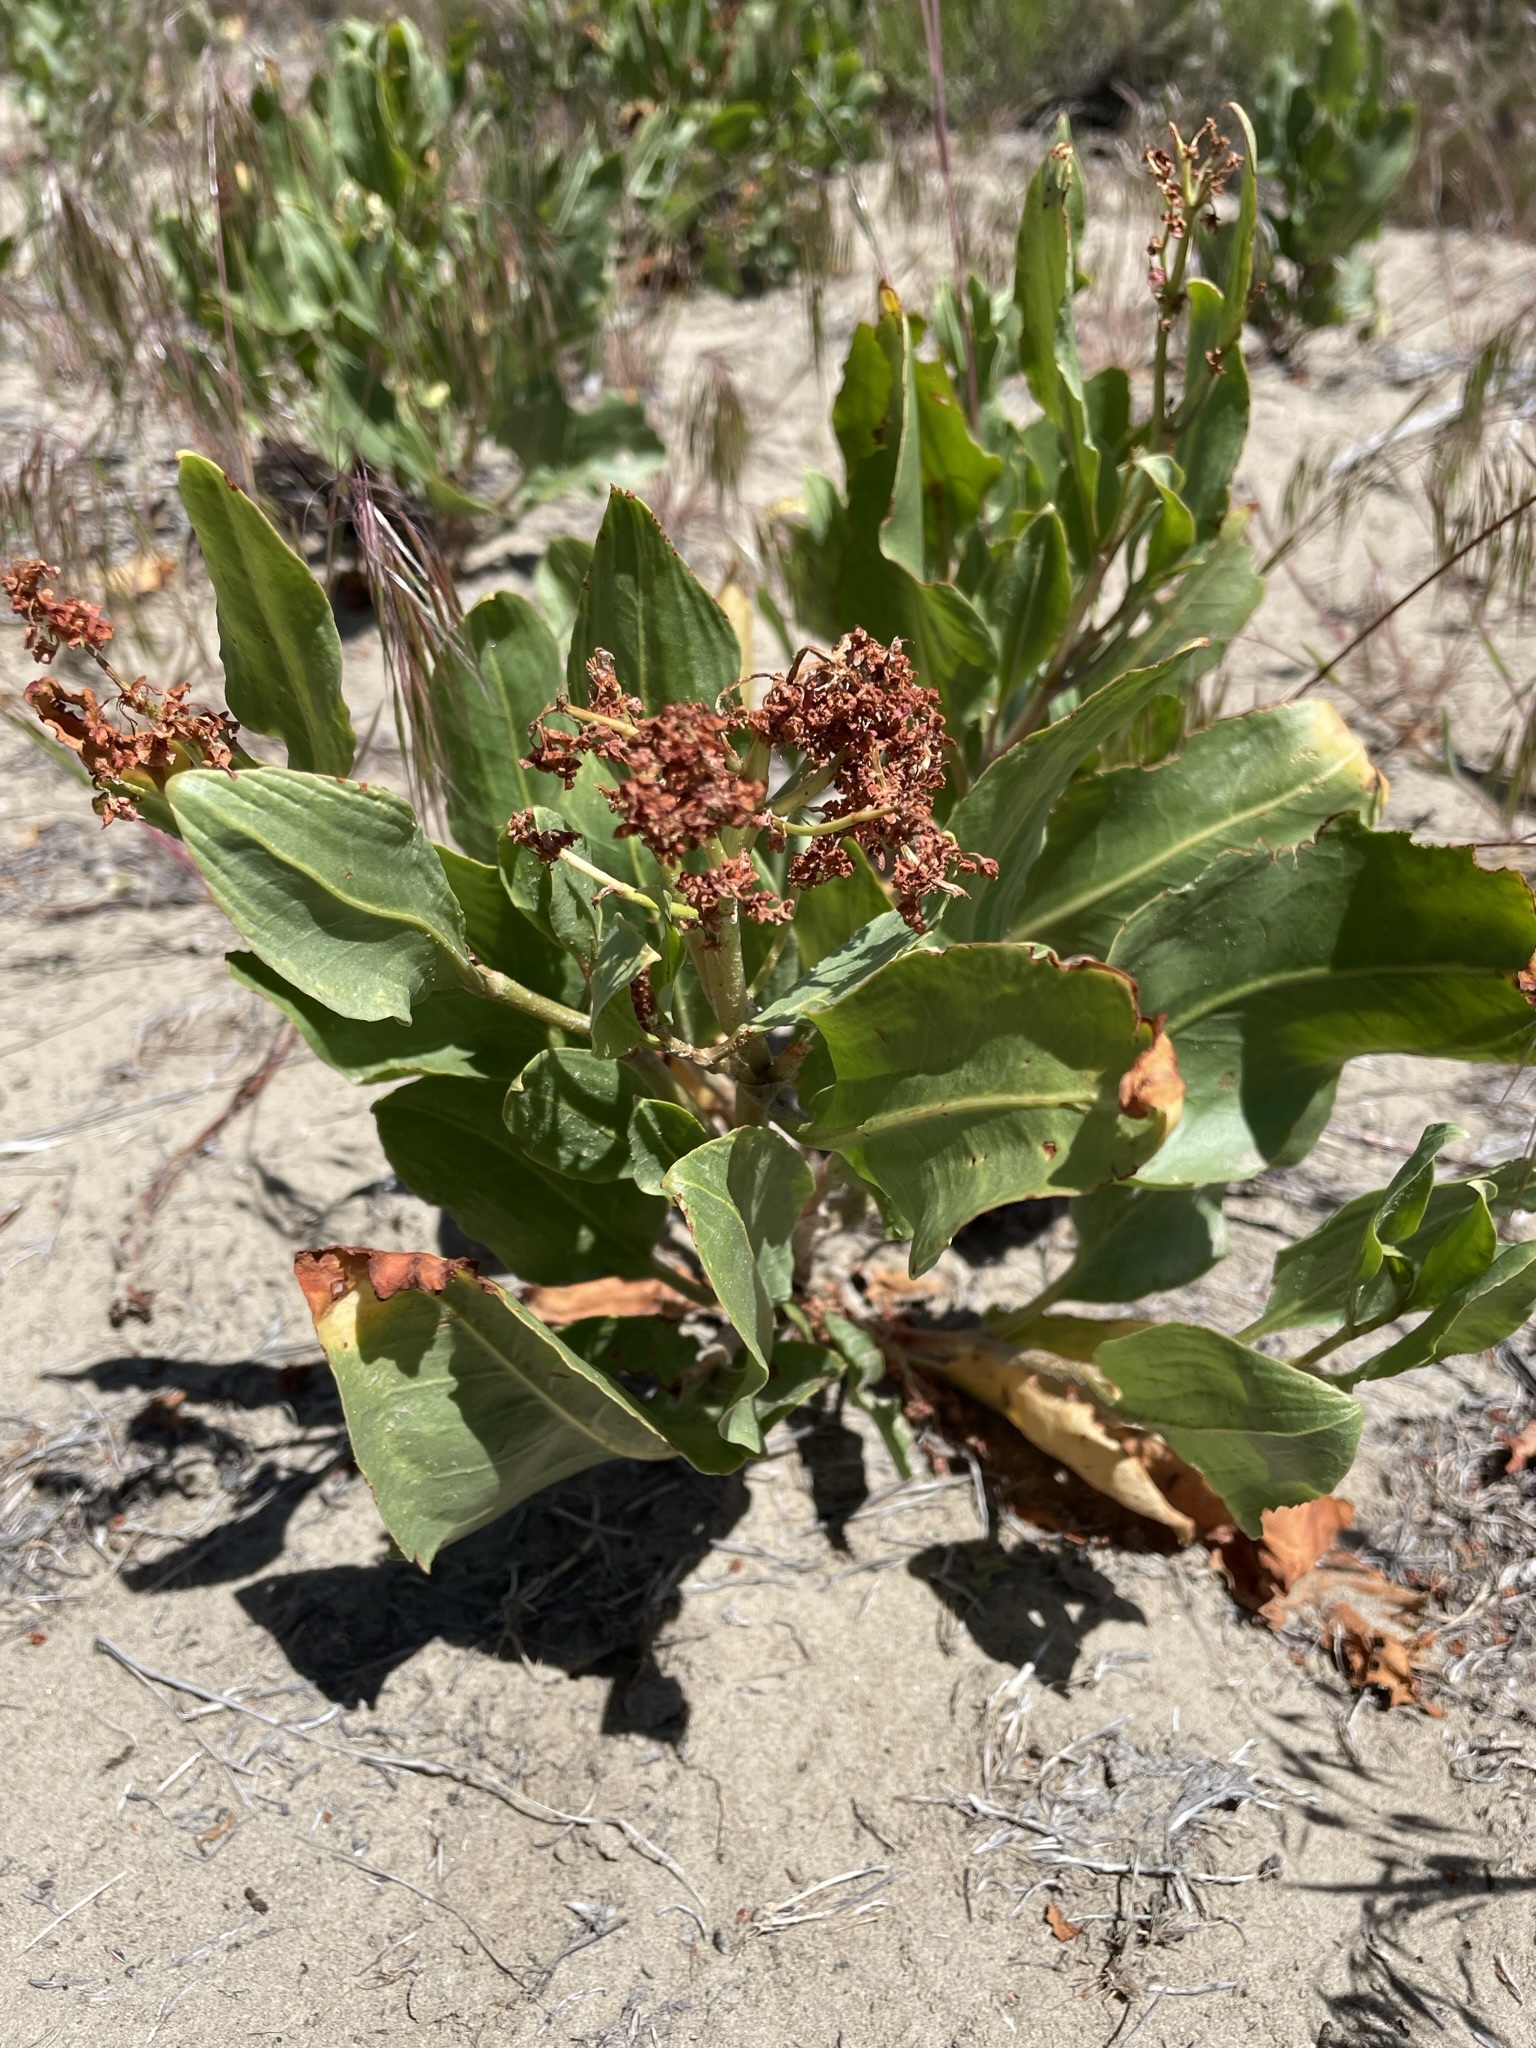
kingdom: Plantae
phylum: Tracheophyta
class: Magnoliopsida
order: Caryophyllales
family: Polygonaceae
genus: Rumex
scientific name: Rumex venosus
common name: Winged dock
